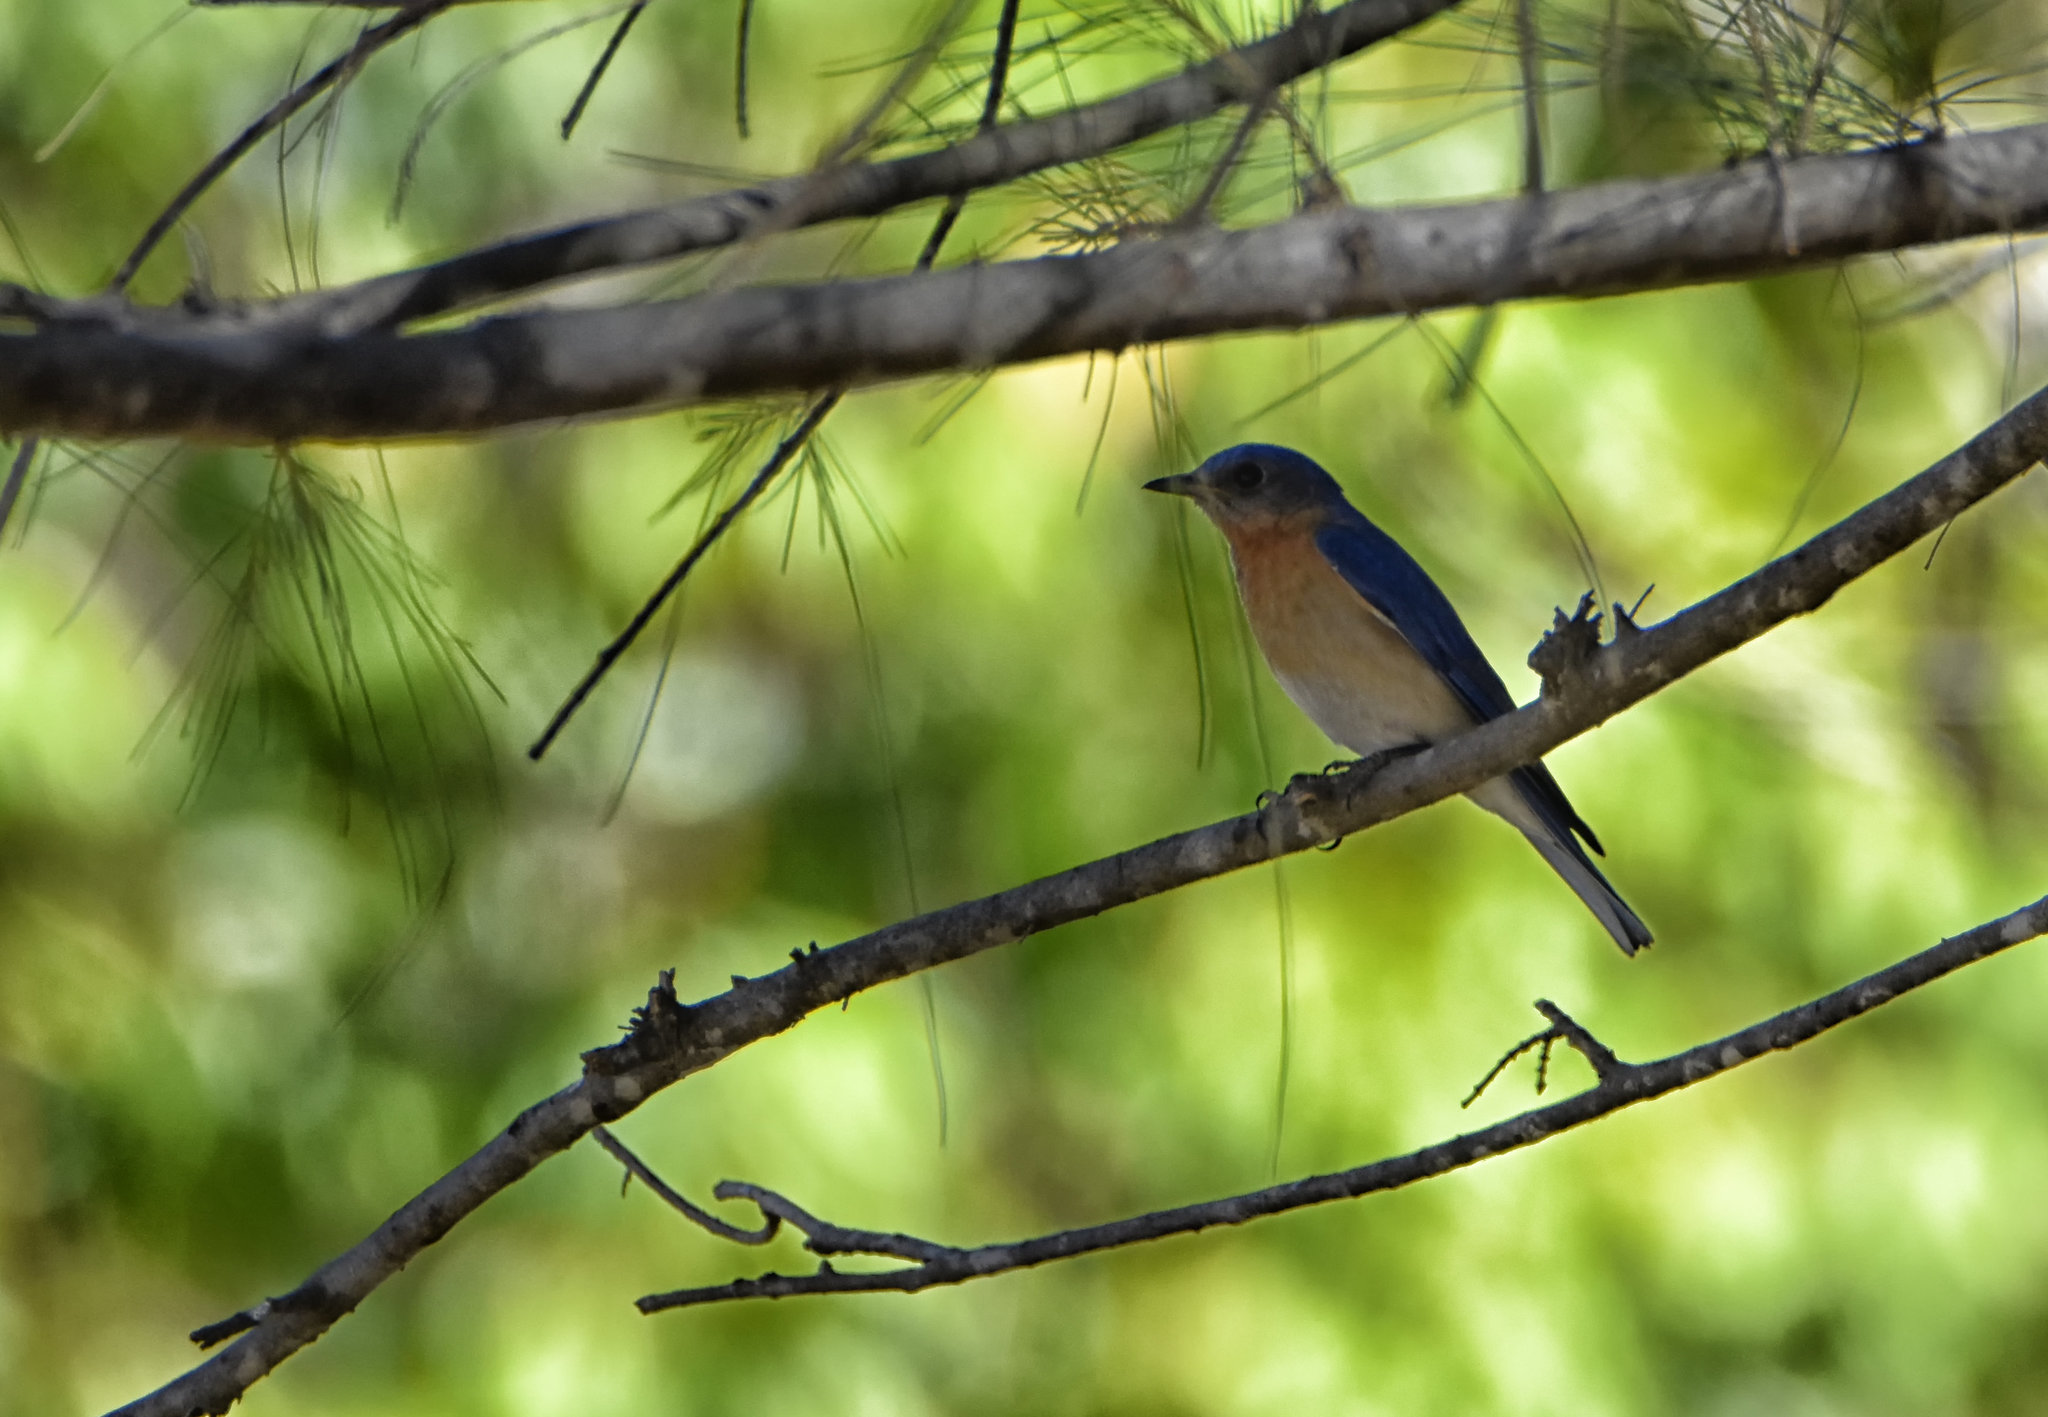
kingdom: Animalia
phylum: Chordata
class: Aves
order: Passeriformes
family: Turdidae
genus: Sialia
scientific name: Sialia sialis
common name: Eastern bluebird
